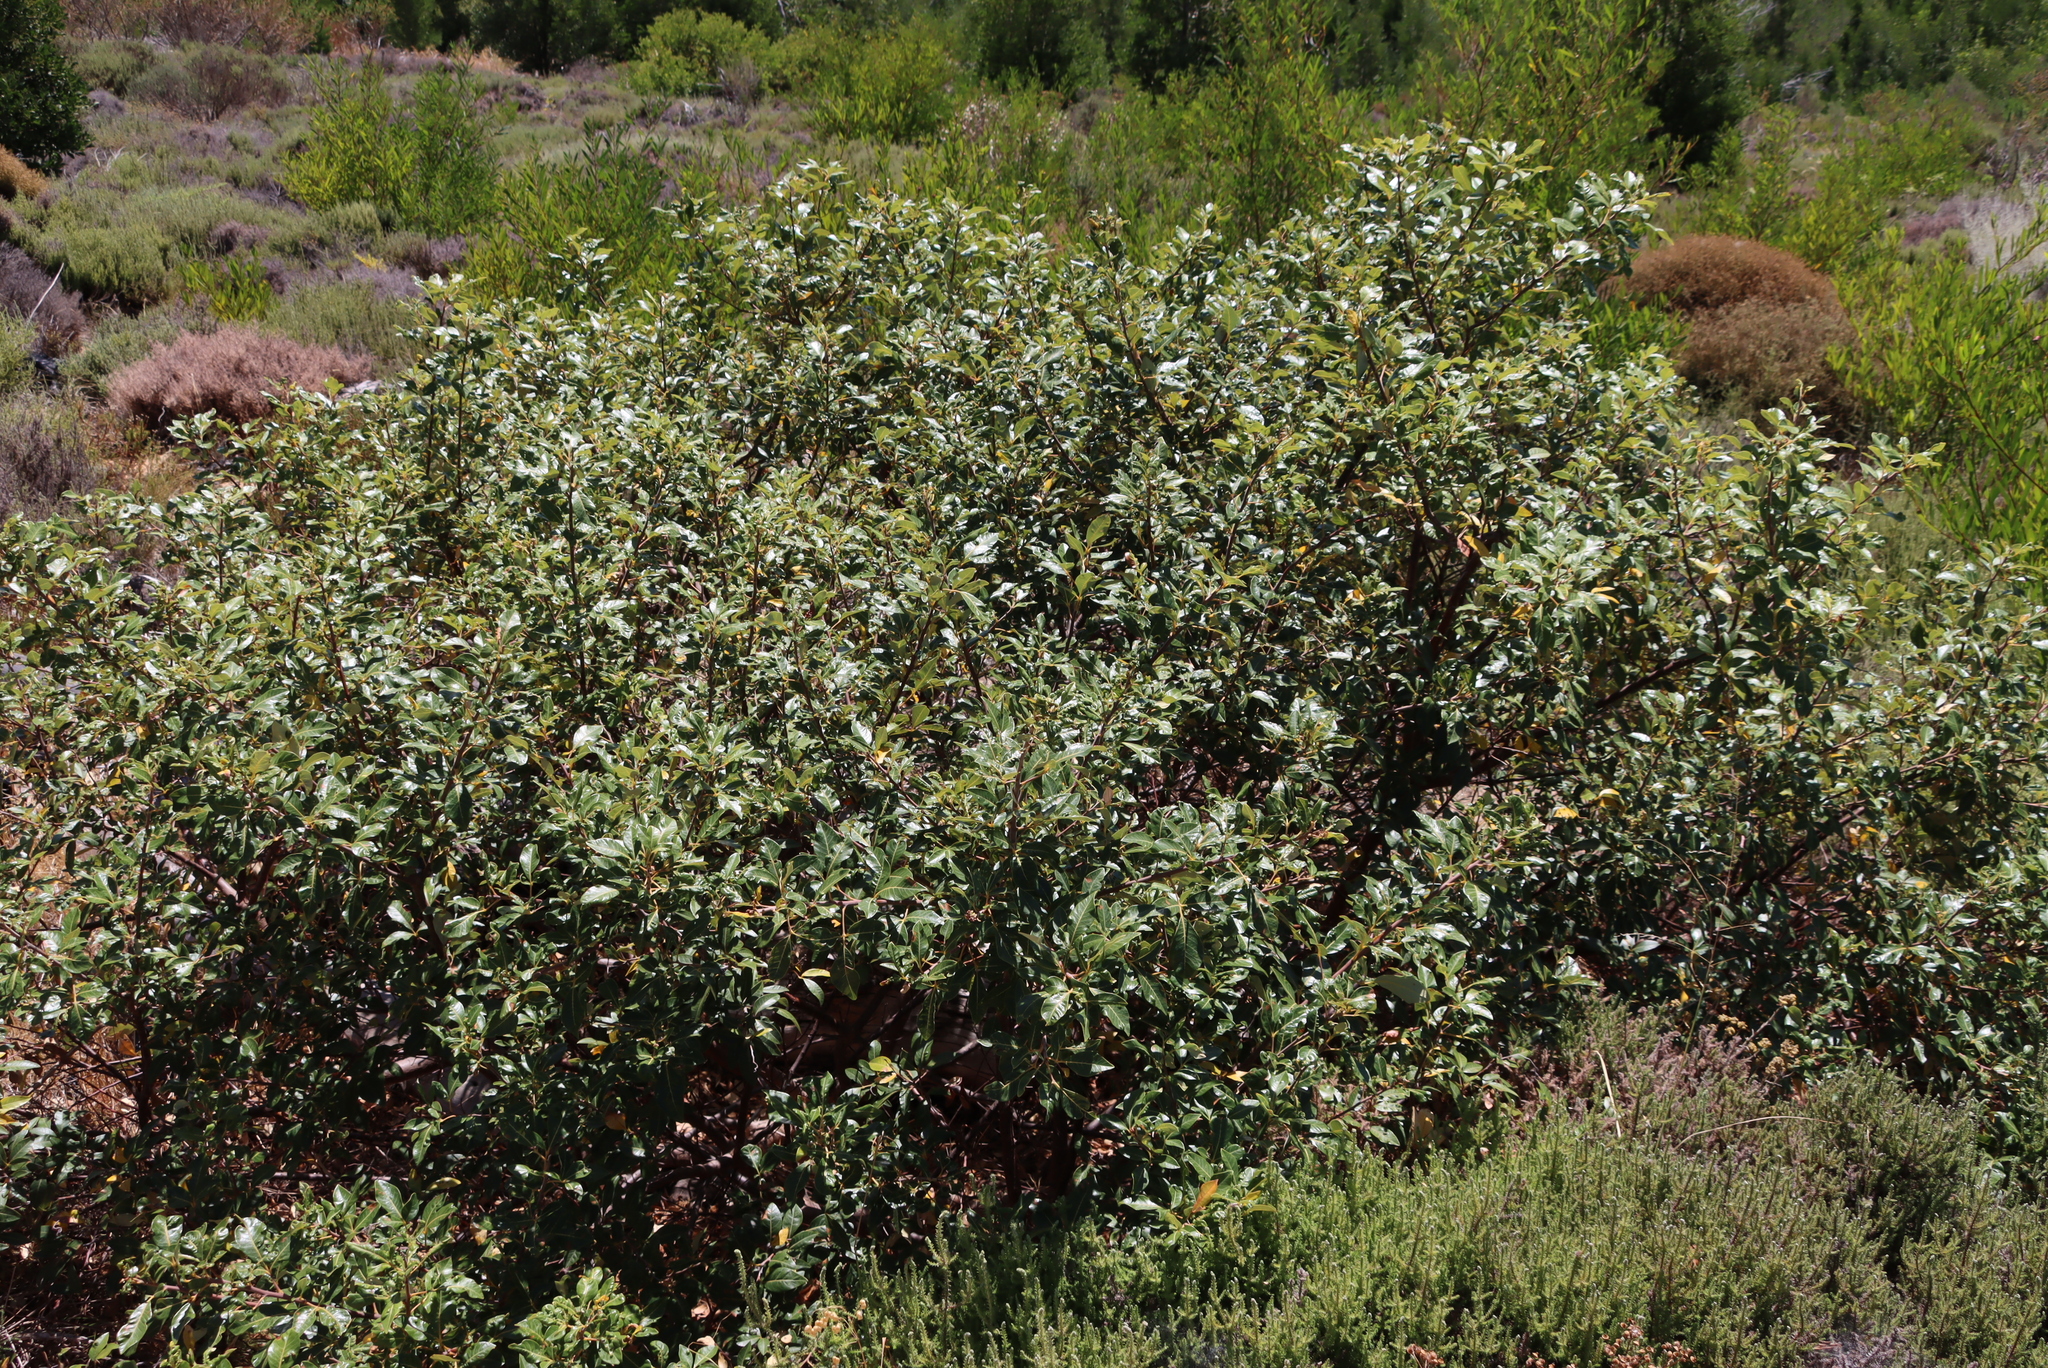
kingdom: Plantae
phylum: Tracheophyta
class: Magnoliopsida
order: Sapindales
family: Anacardiaceae
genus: Searsia
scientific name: Searsia tomentosa
